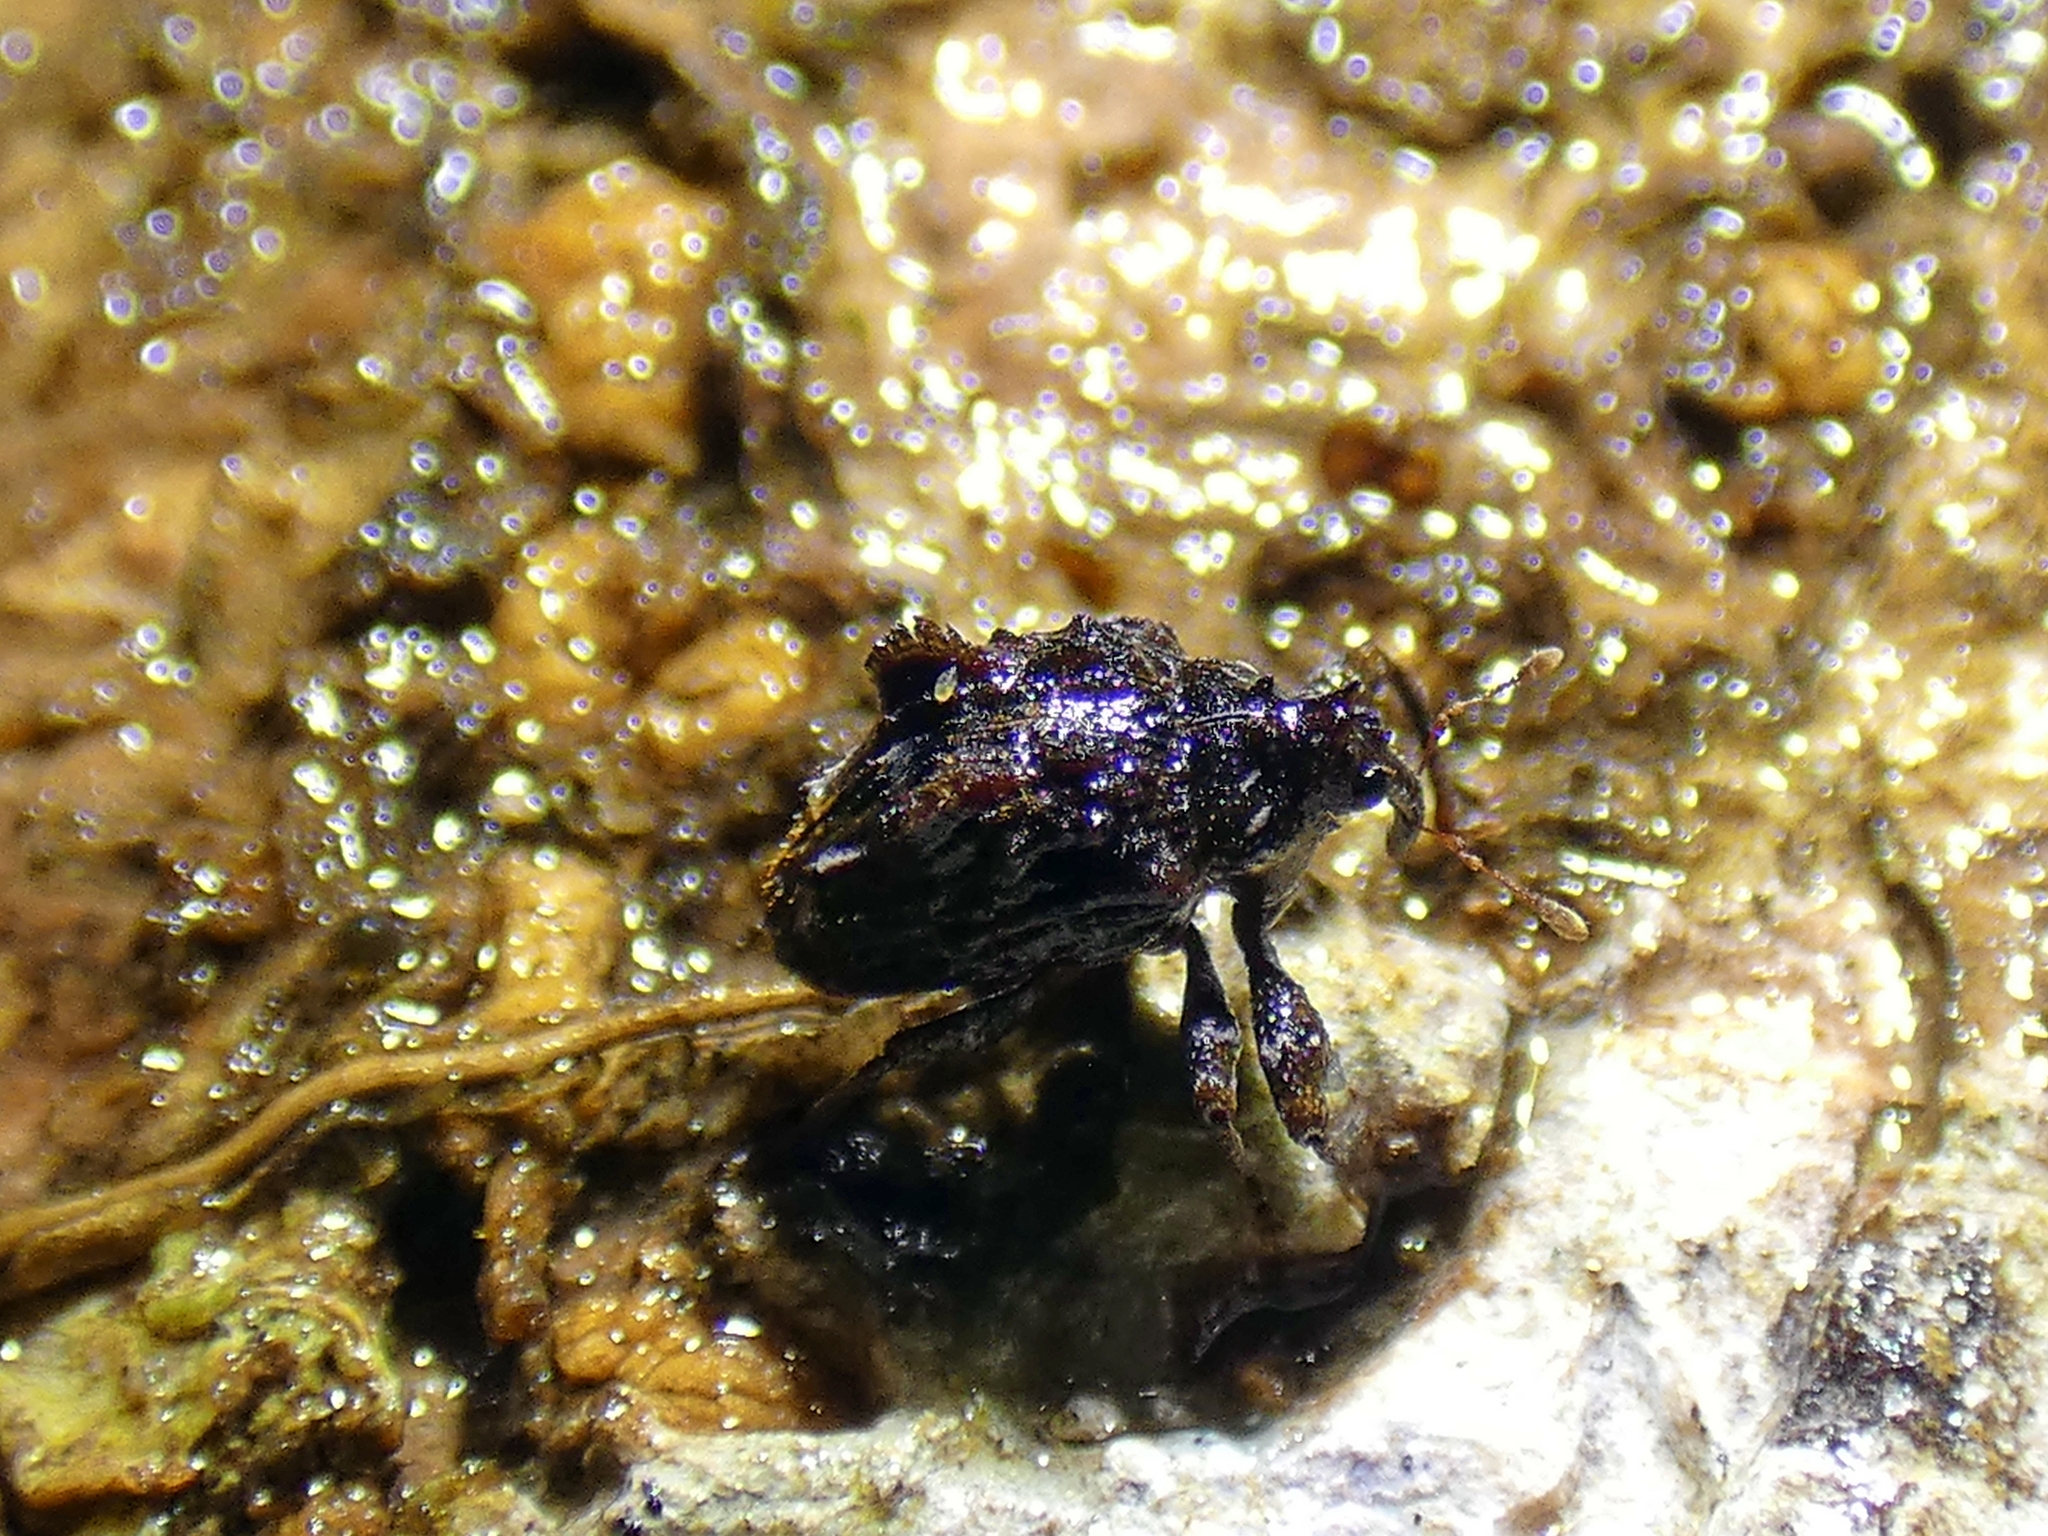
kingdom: Animalia
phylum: Arthropoda
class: Insecta
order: Coleoptera
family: Curculionidae
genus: Acrotychreus
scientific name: Acrotychreus fasciculatus
